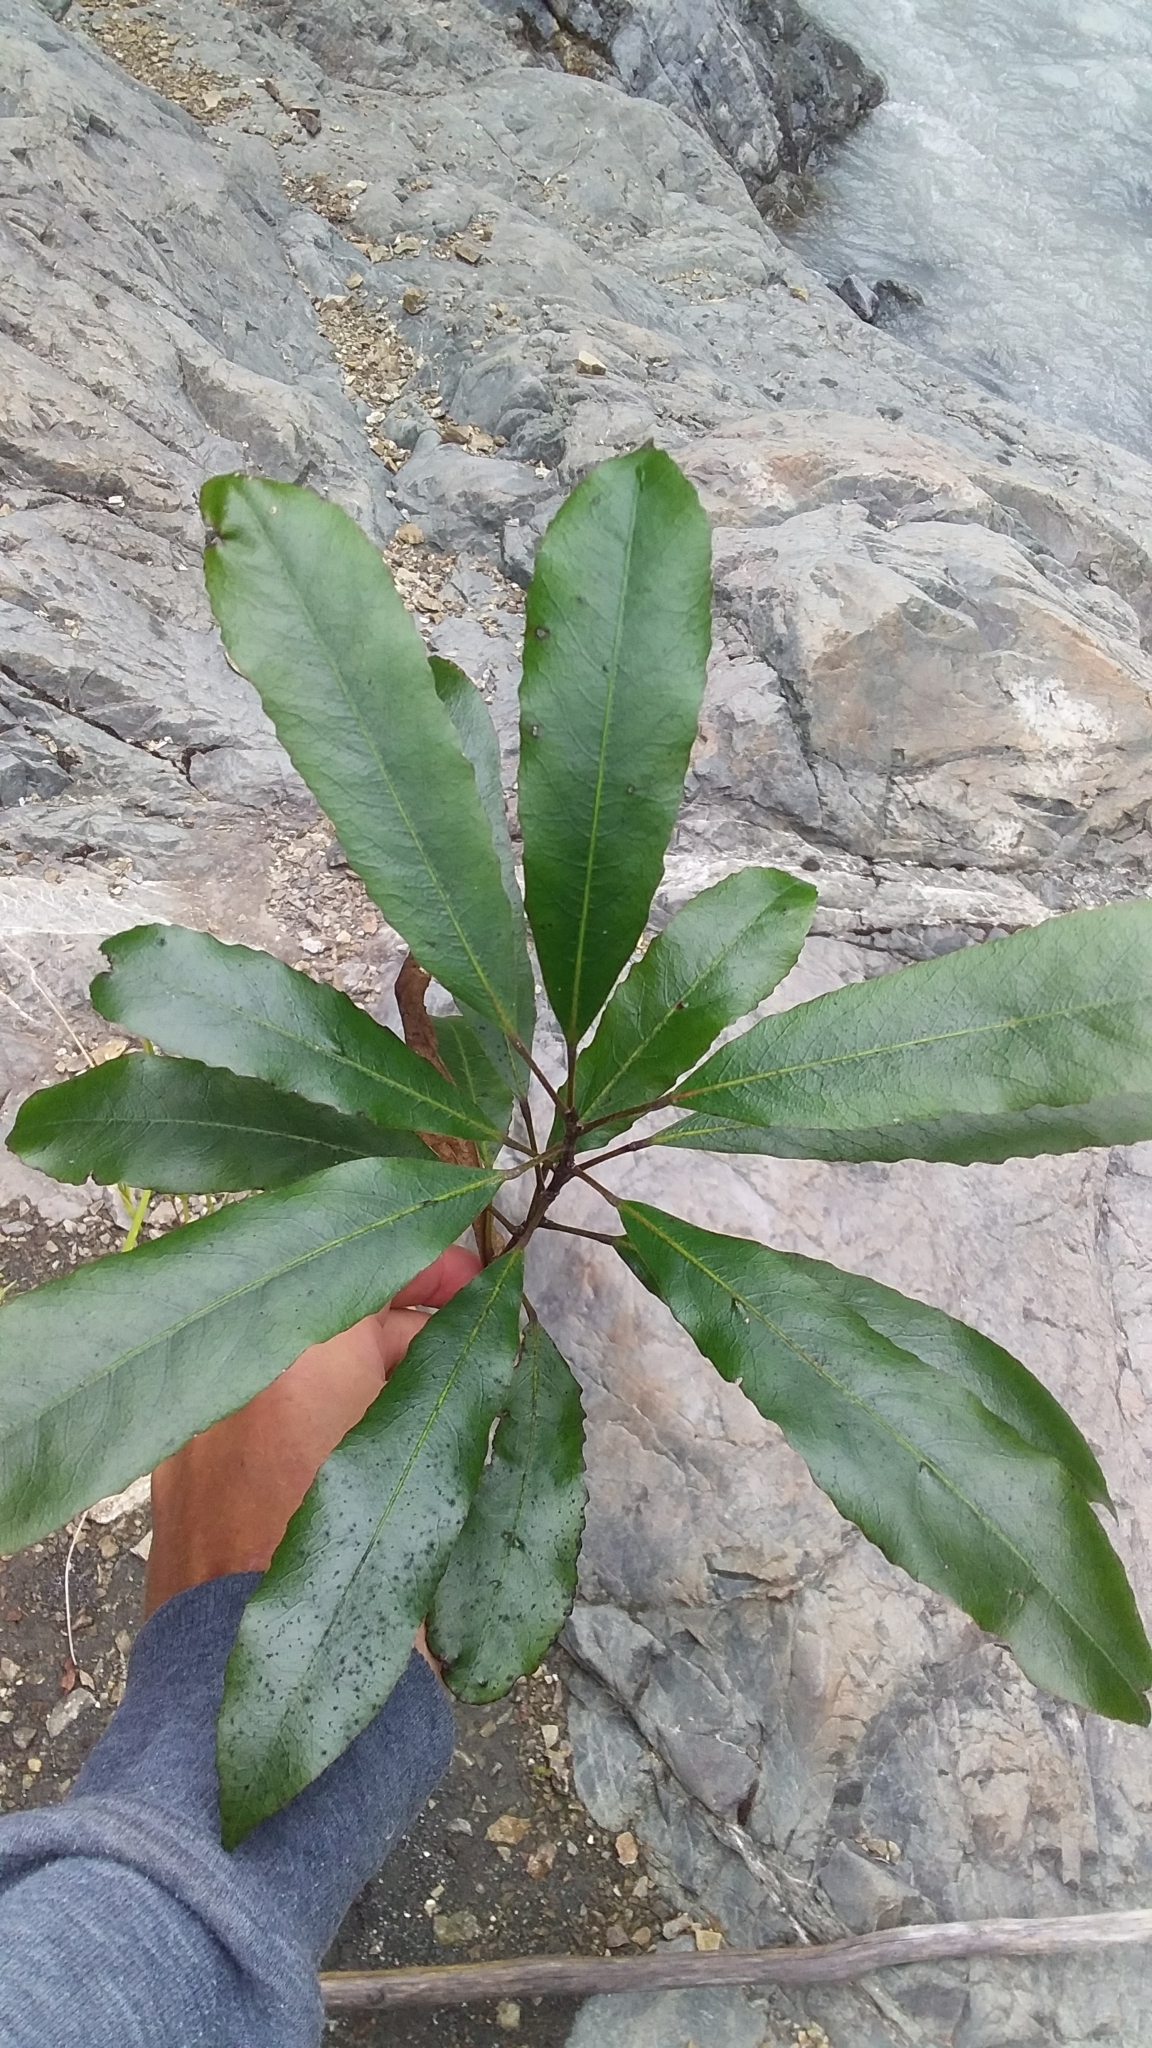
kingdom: Plantae
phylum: Tracheophyta
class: Magnoliopsida
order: Oxalidales
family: Elaeocarpaceae
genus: Elaeocarpus
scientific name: Elaeocarpus dentatus
